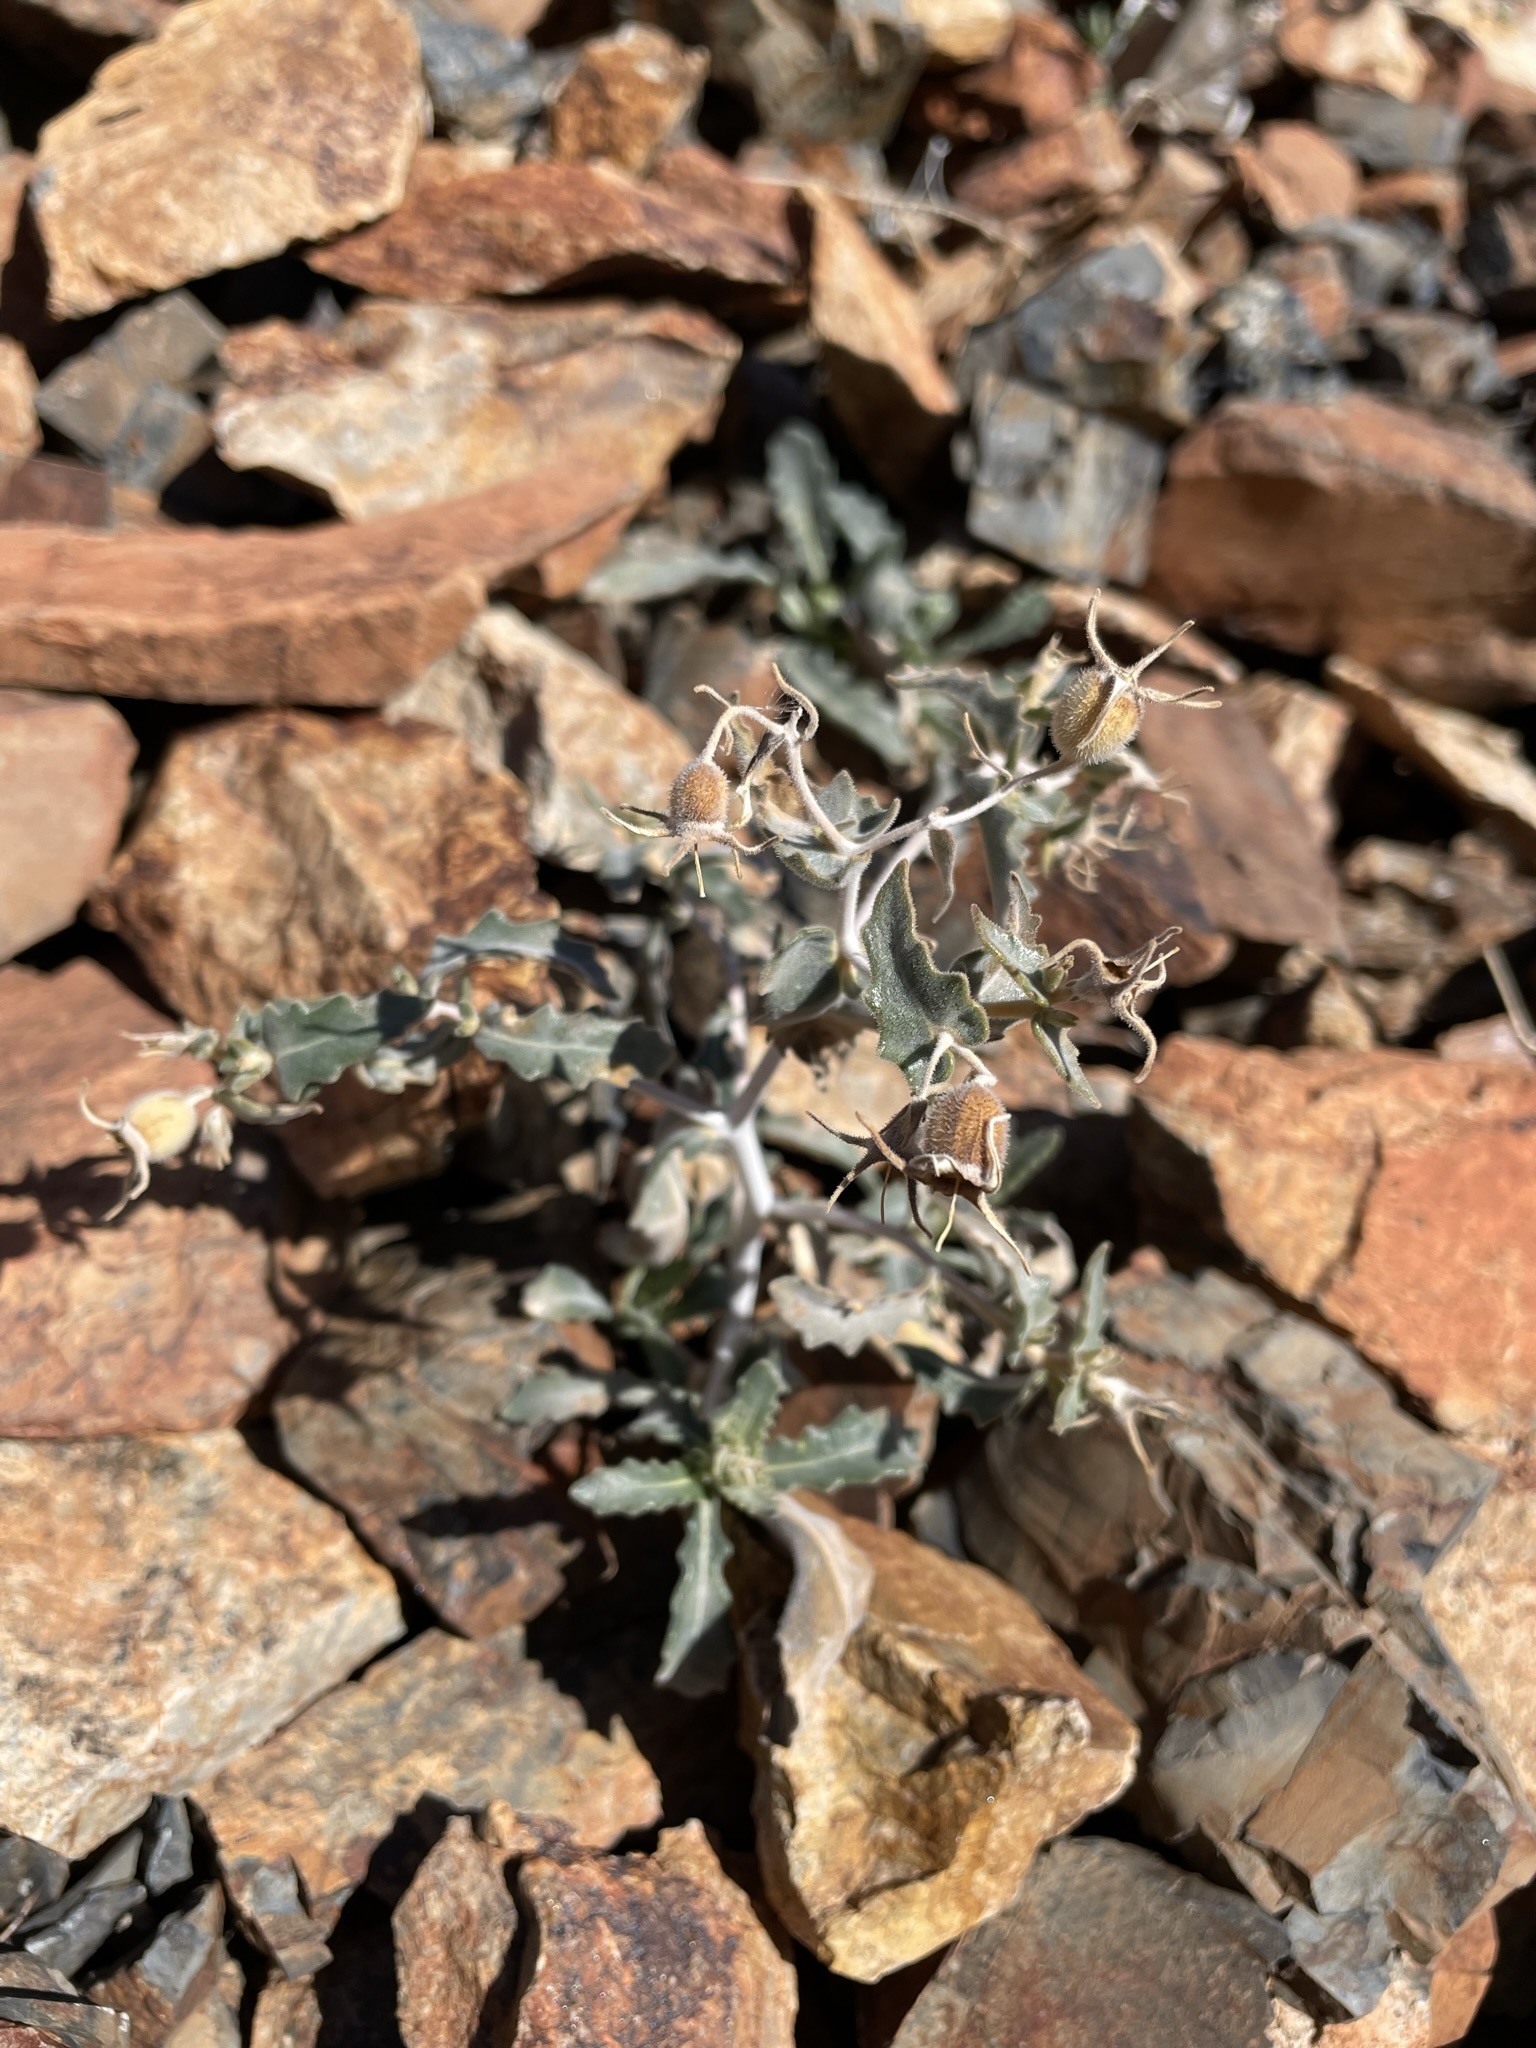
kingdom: Plantae
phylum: Tracheophyta
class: Magnoliopsida
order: Cornales
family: Loasaceae
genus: Mentzelia
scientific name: Mentzelia oreophila
